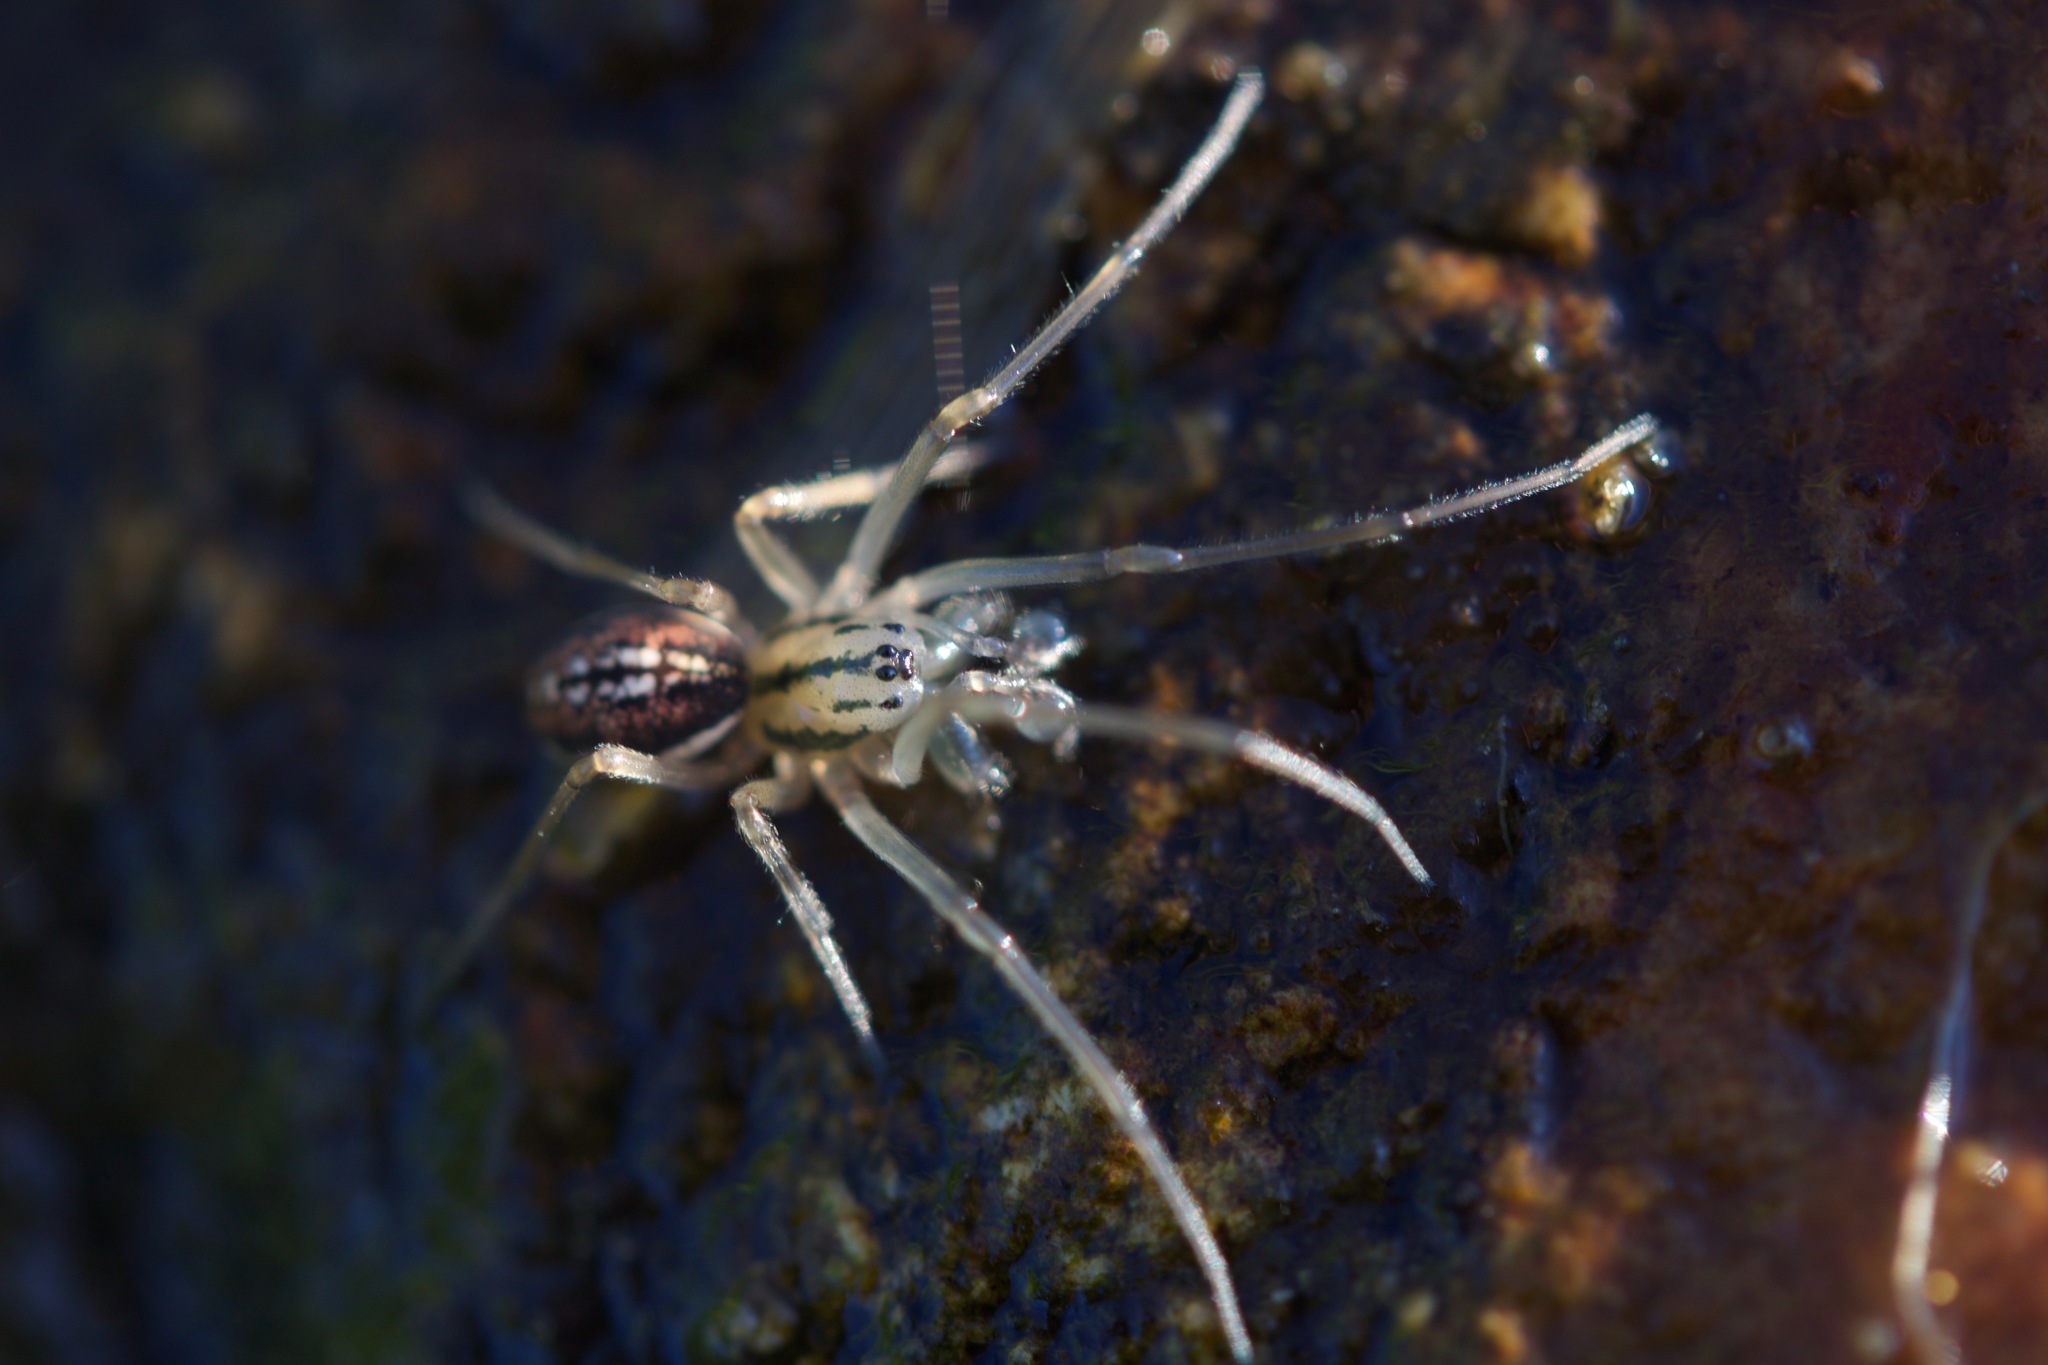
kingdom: Animalia
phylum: Arthropoda
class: Arachnida
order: Araneae
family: Tetragnathidae
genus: Pachygnatha
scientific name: Pachygnatha clercki
